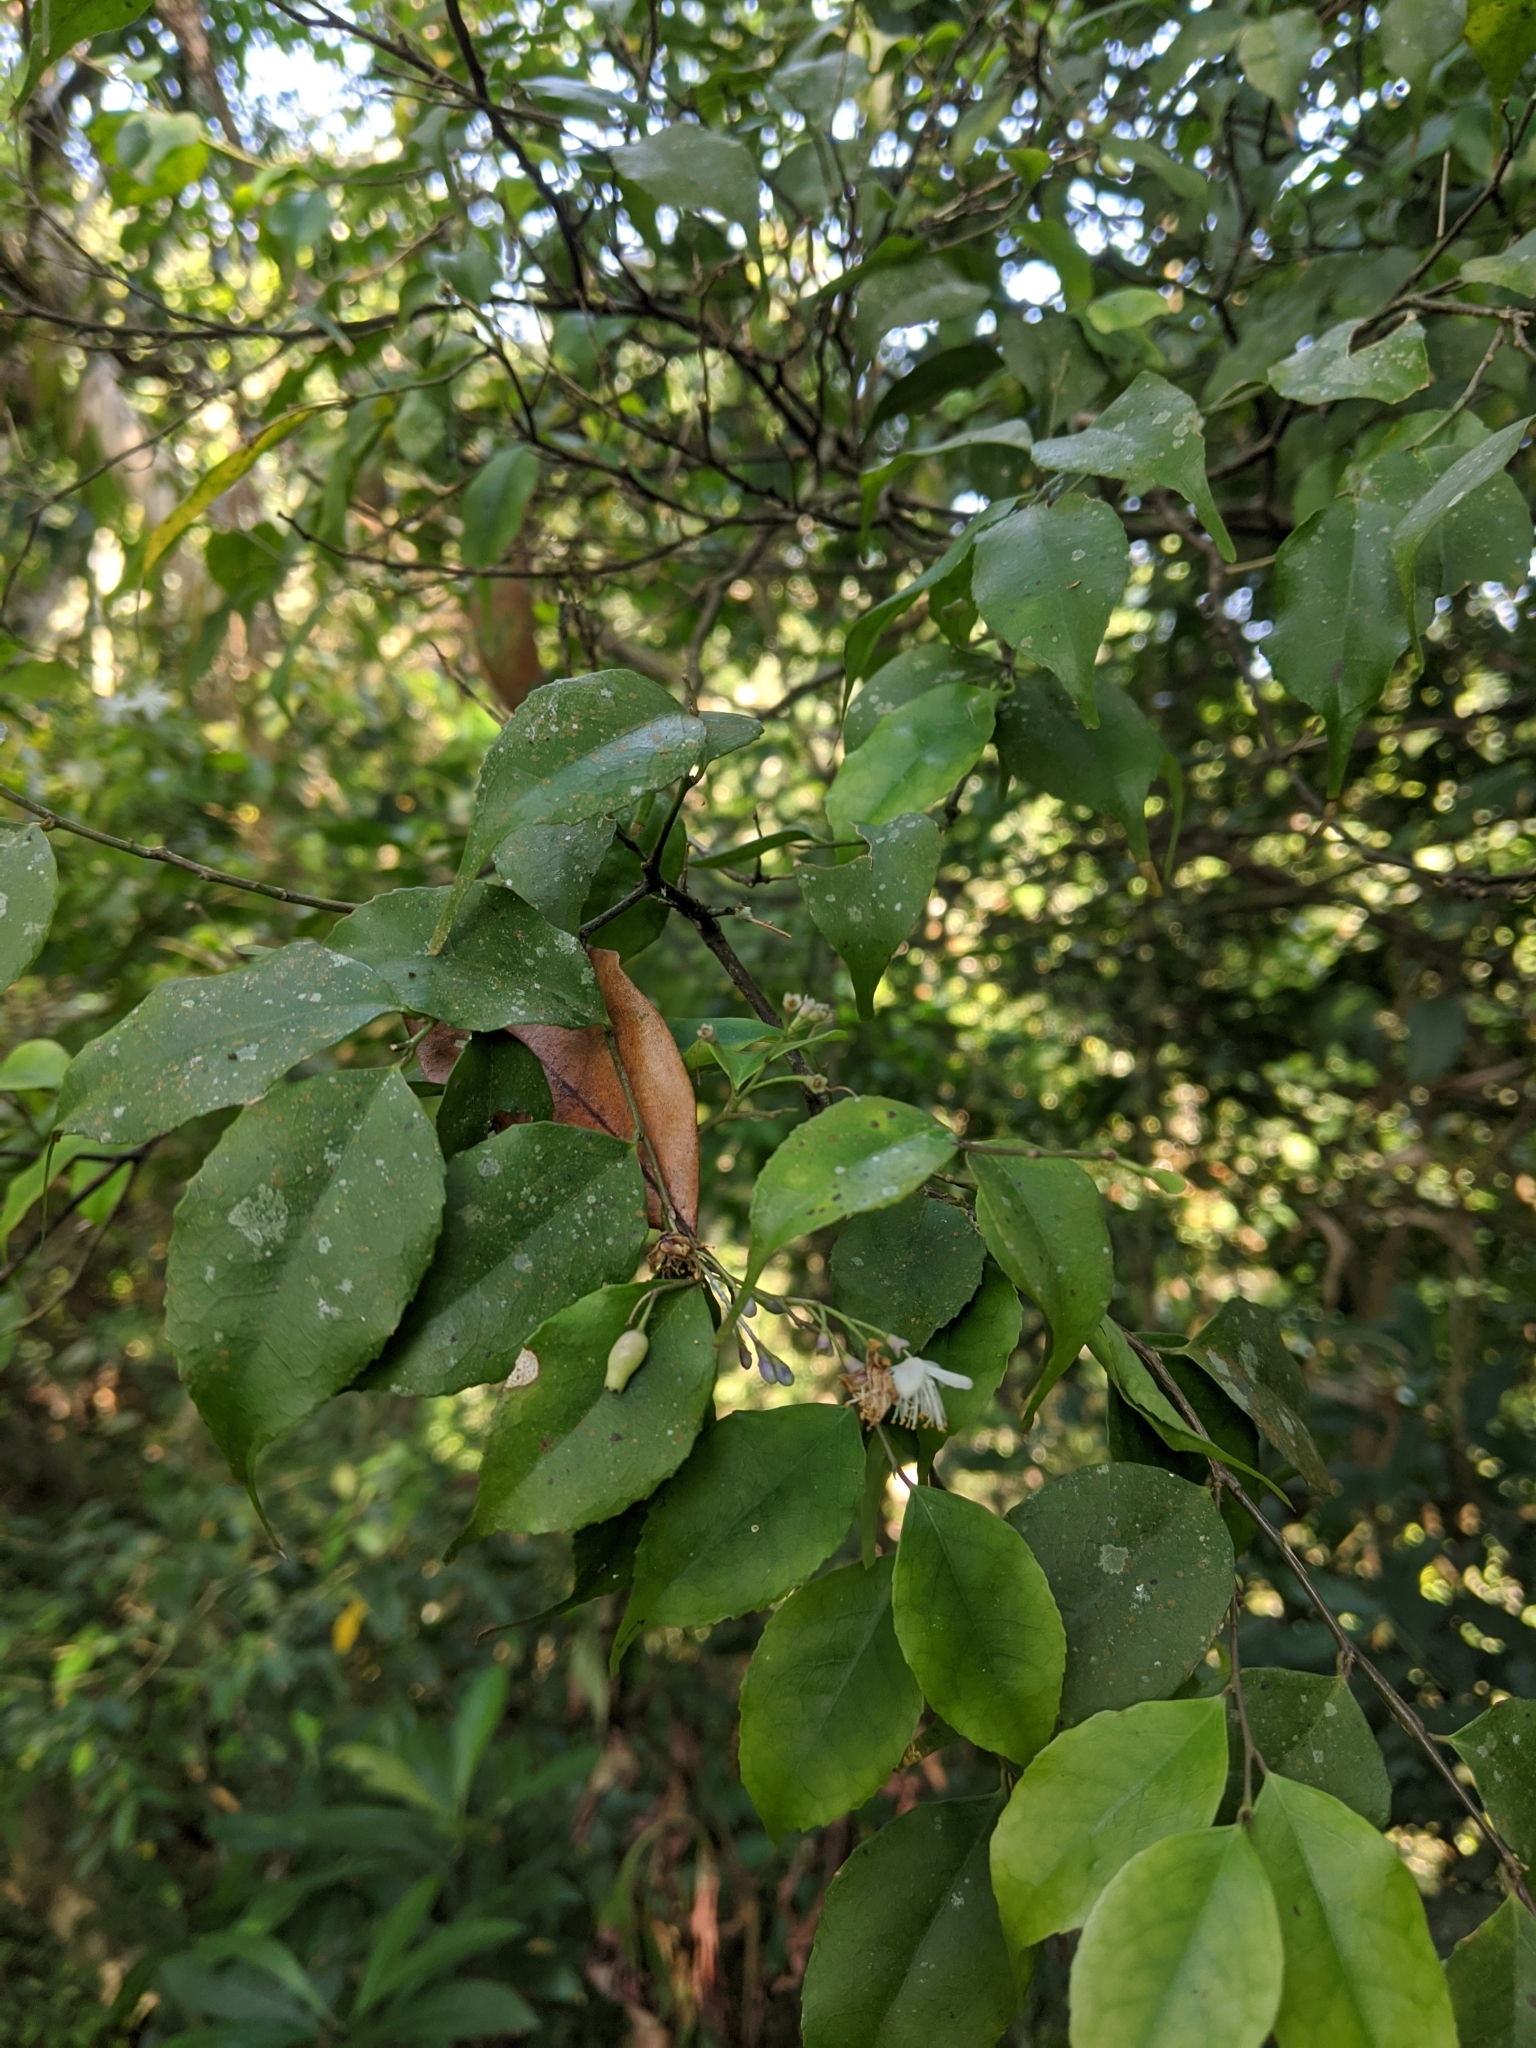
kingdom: Plantae
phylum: Tracheophyta
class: Magnoliopsida
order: Ericales
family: Symplocaceae
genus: Symplocos
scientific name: Symplocos sumuntia
